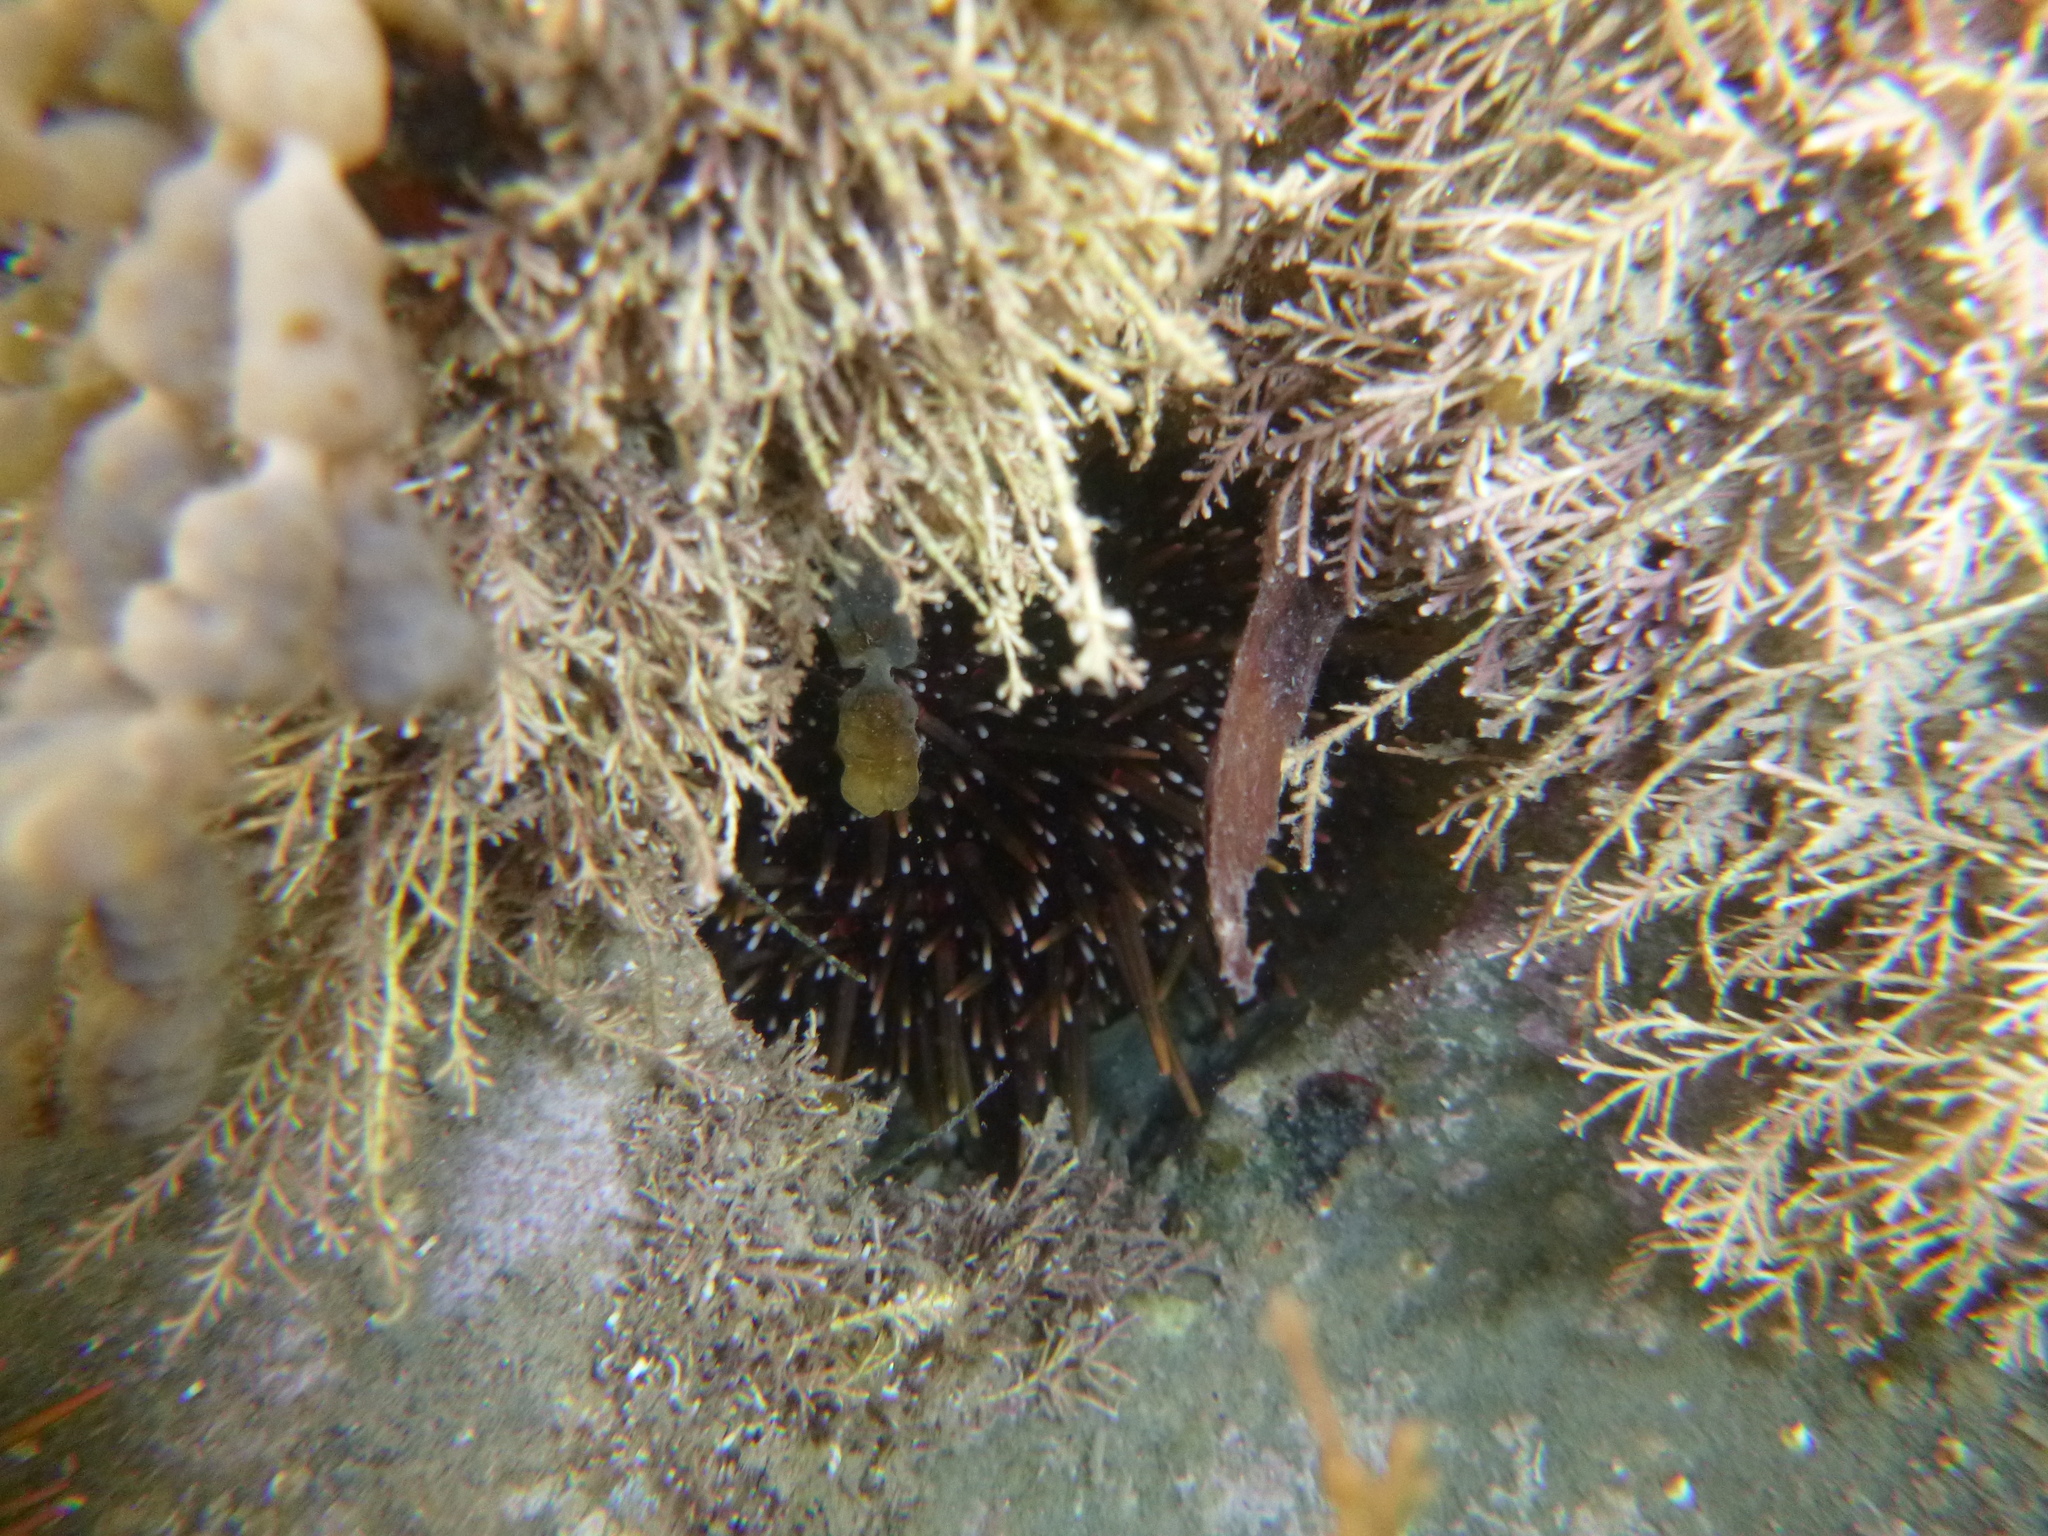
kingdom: Animalia
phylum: Echinodermata
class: Echinoidea
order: Camarodonta
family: Echinometridae
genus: Evechinus
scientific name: Evechinus chloroticus
